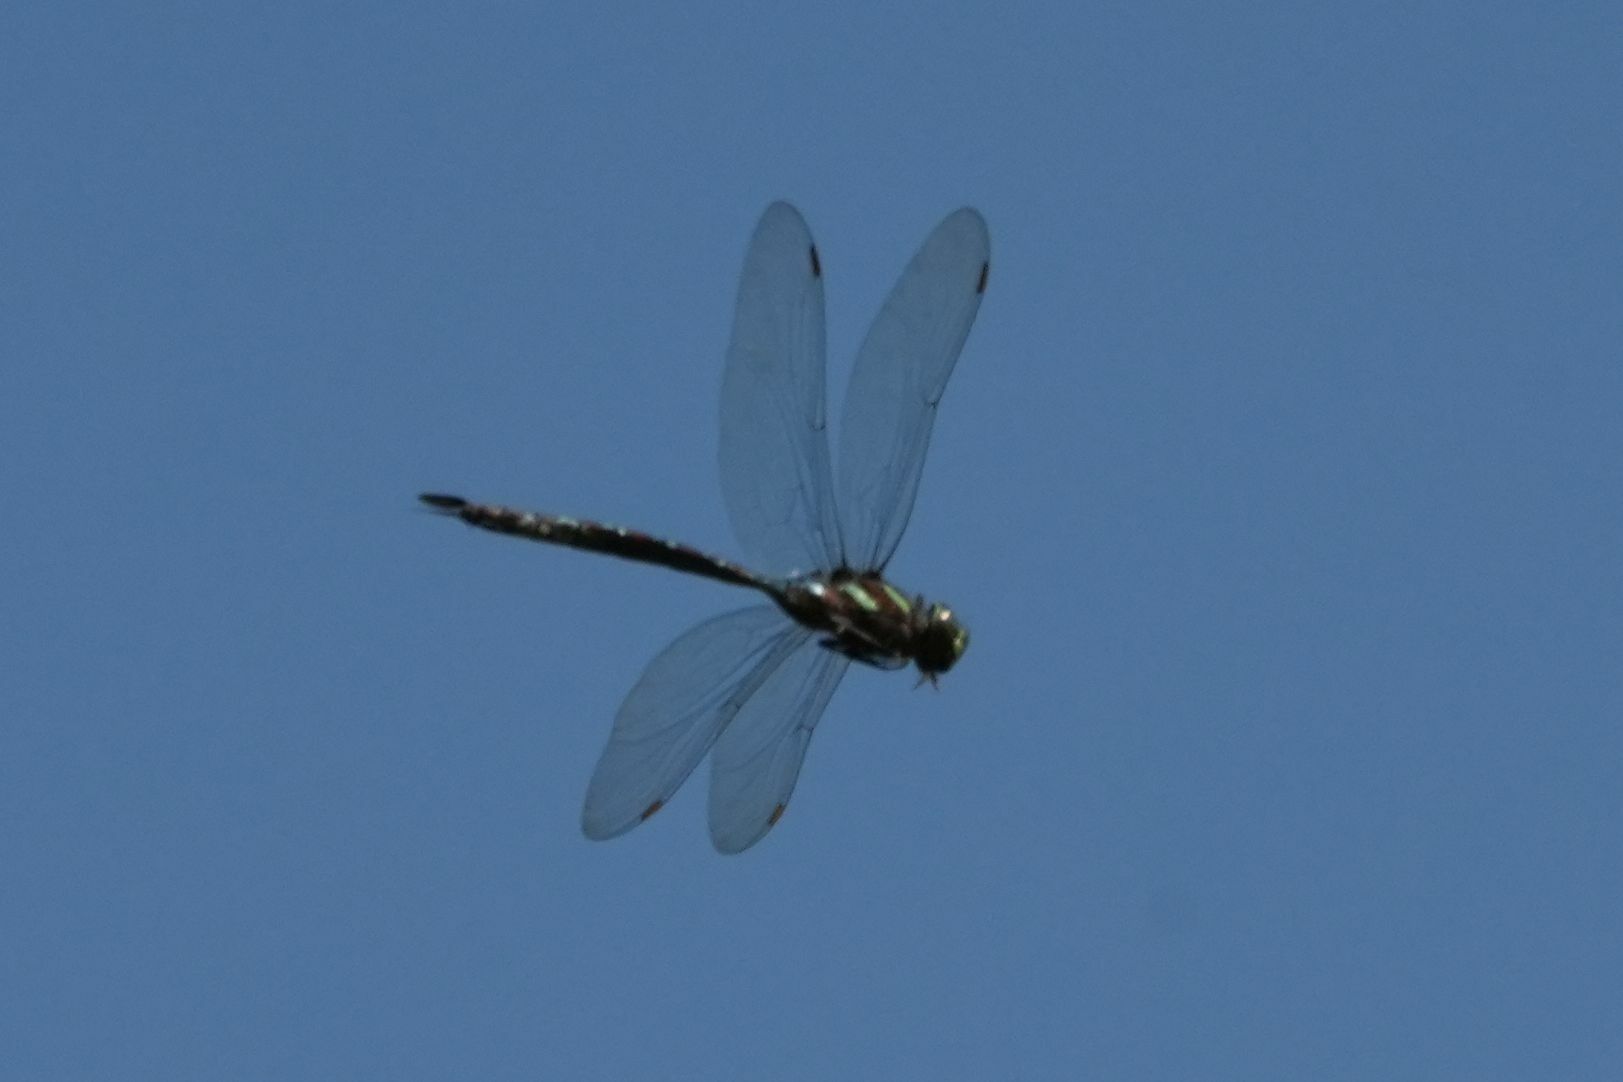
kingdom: Animalia
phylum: Arthropoda
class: Insecta
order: Odonata
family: Aeshnidae
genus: Aeshna
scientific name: Aeshna umbrosa
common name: Shadow darner
